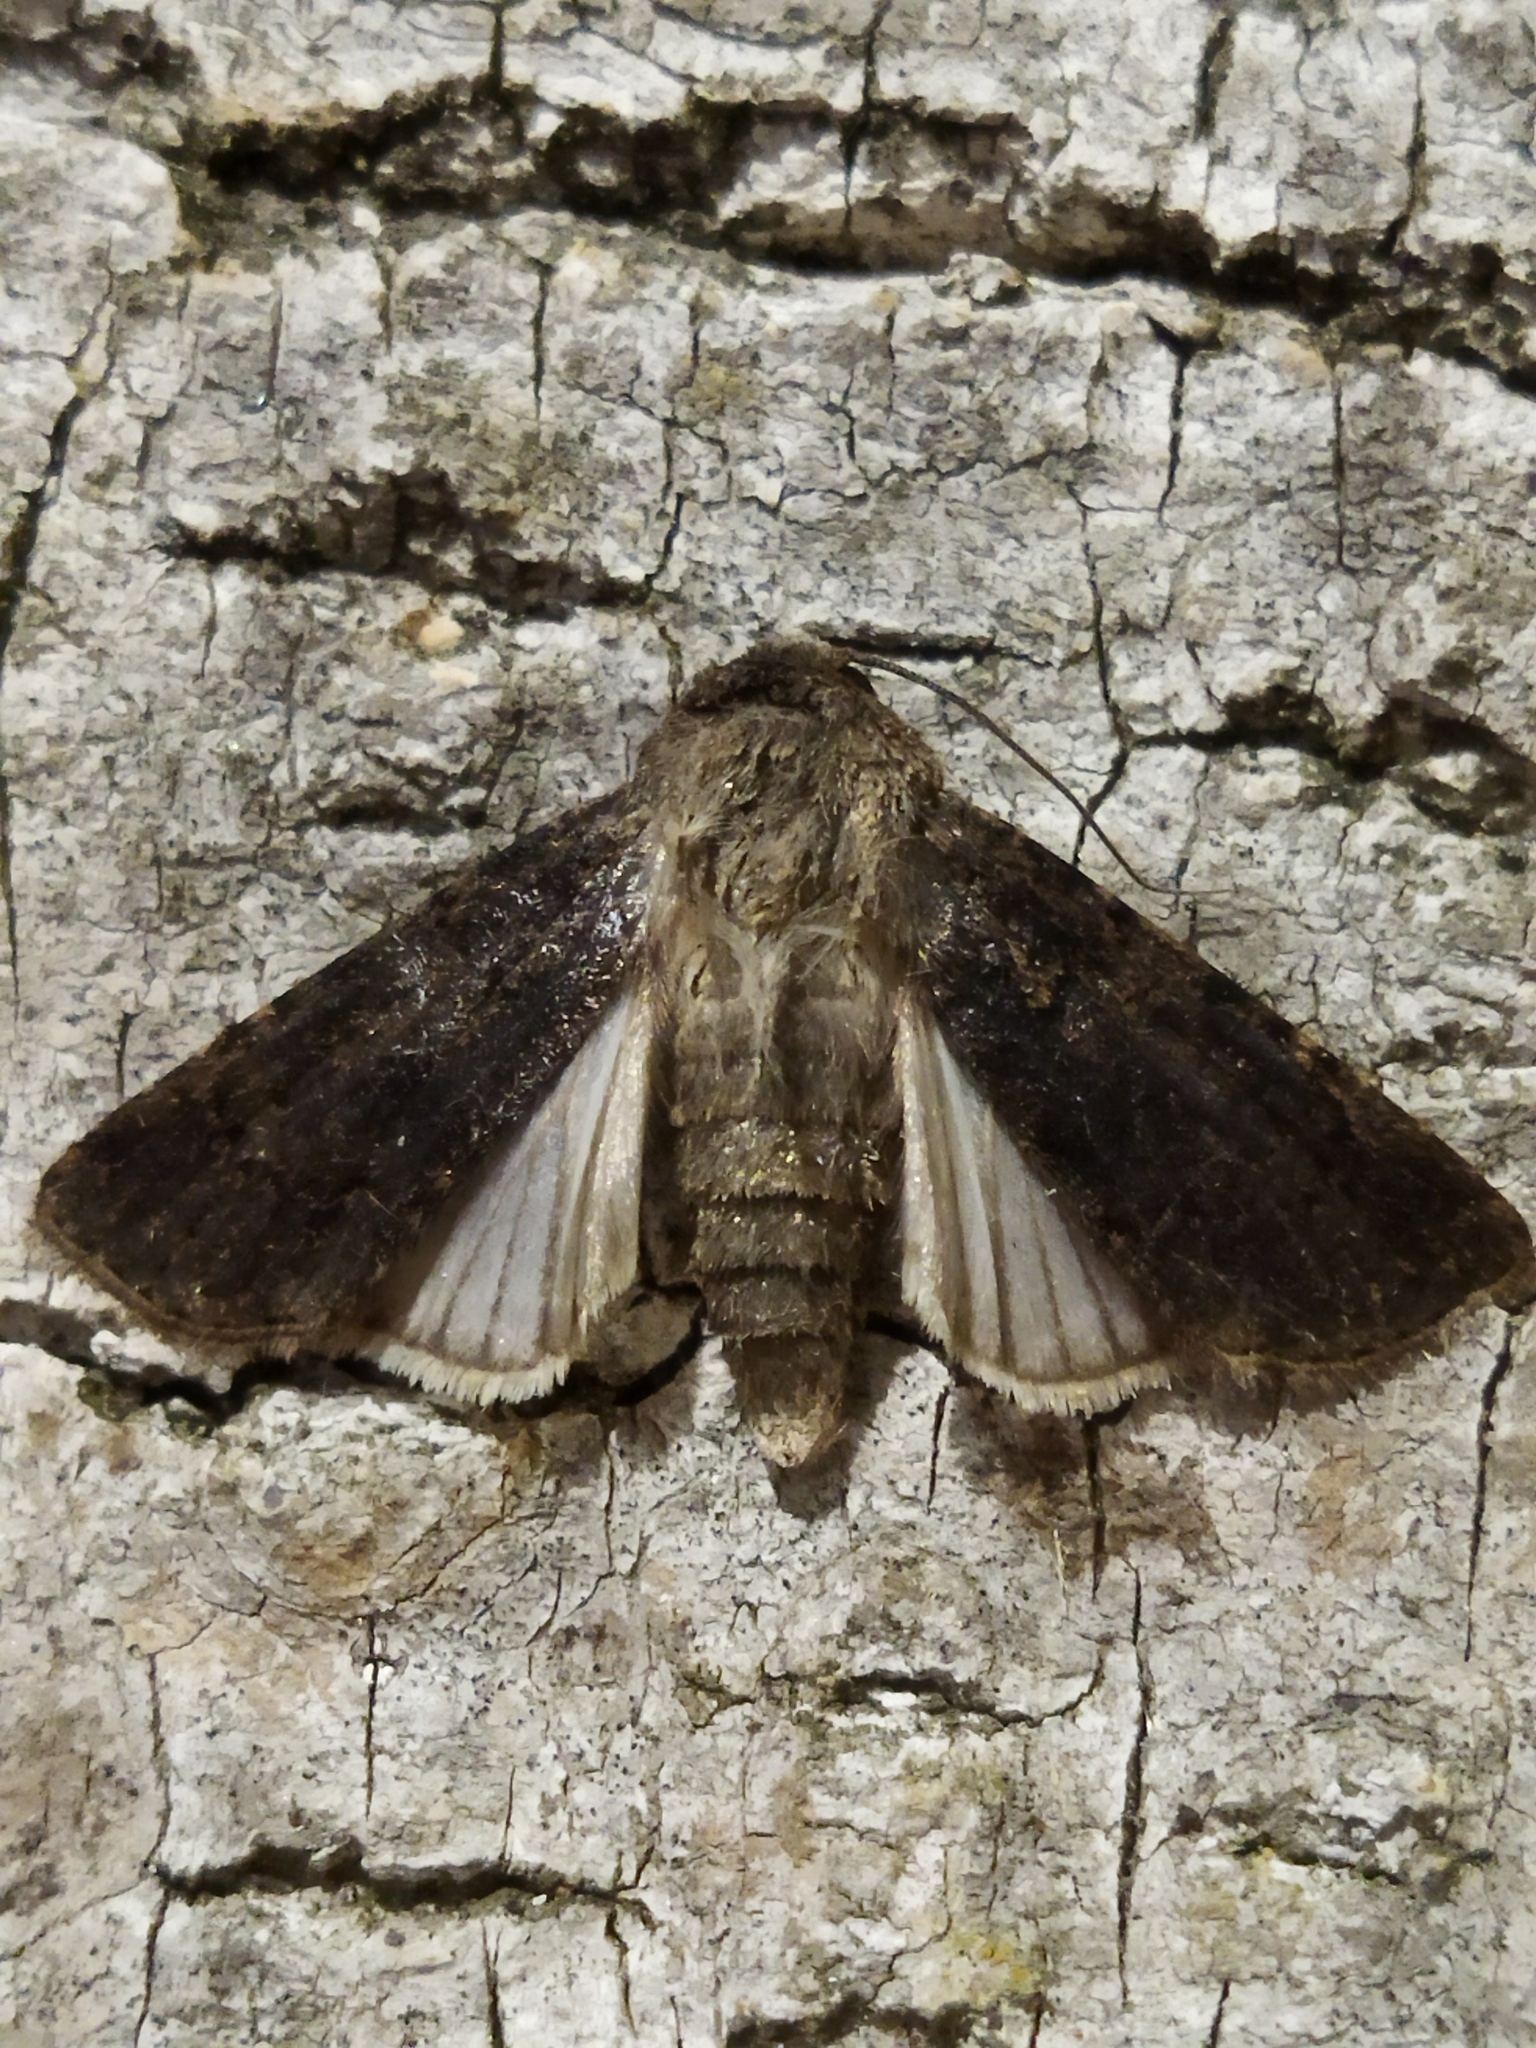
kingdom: Animalia
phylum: Arthropoda
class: Insecta
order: Lepidoptera
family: Noctuidae
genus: Agrotis
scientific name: Agrotis segetum
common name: Turnip moth
